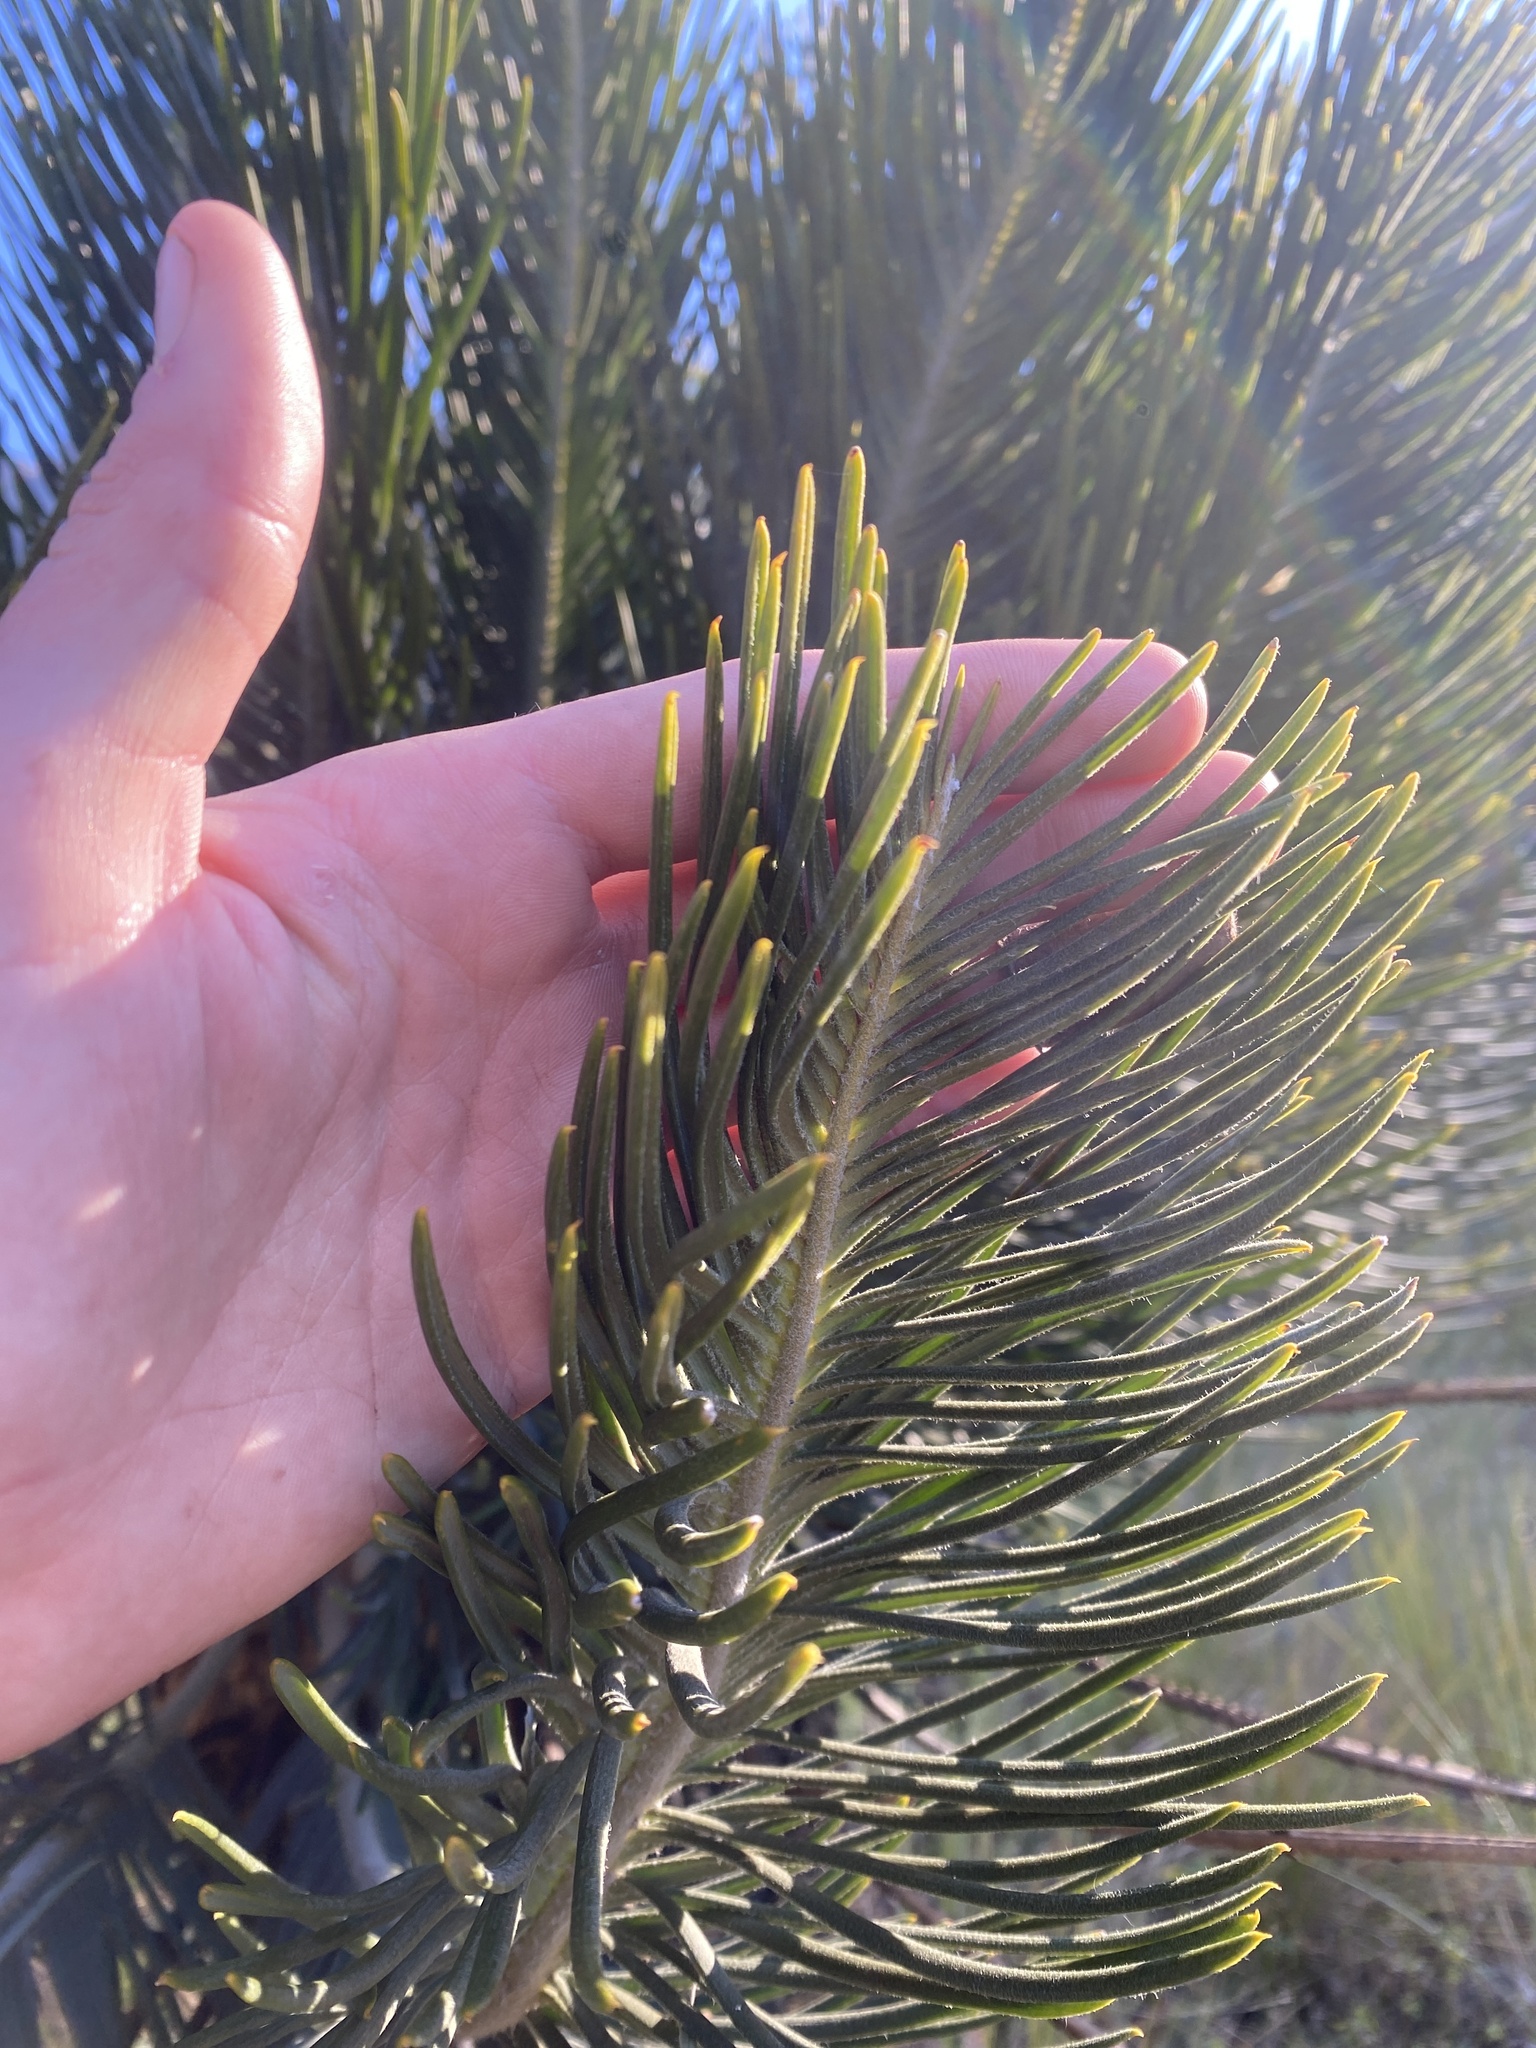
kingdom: Plantae
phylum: Tracheophyta
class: Cycadopsida
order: Cycadales
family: Zamiaceae
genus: Encephalartos
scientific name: Encephalartos ghellinckii
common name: Drakensberg cycad
